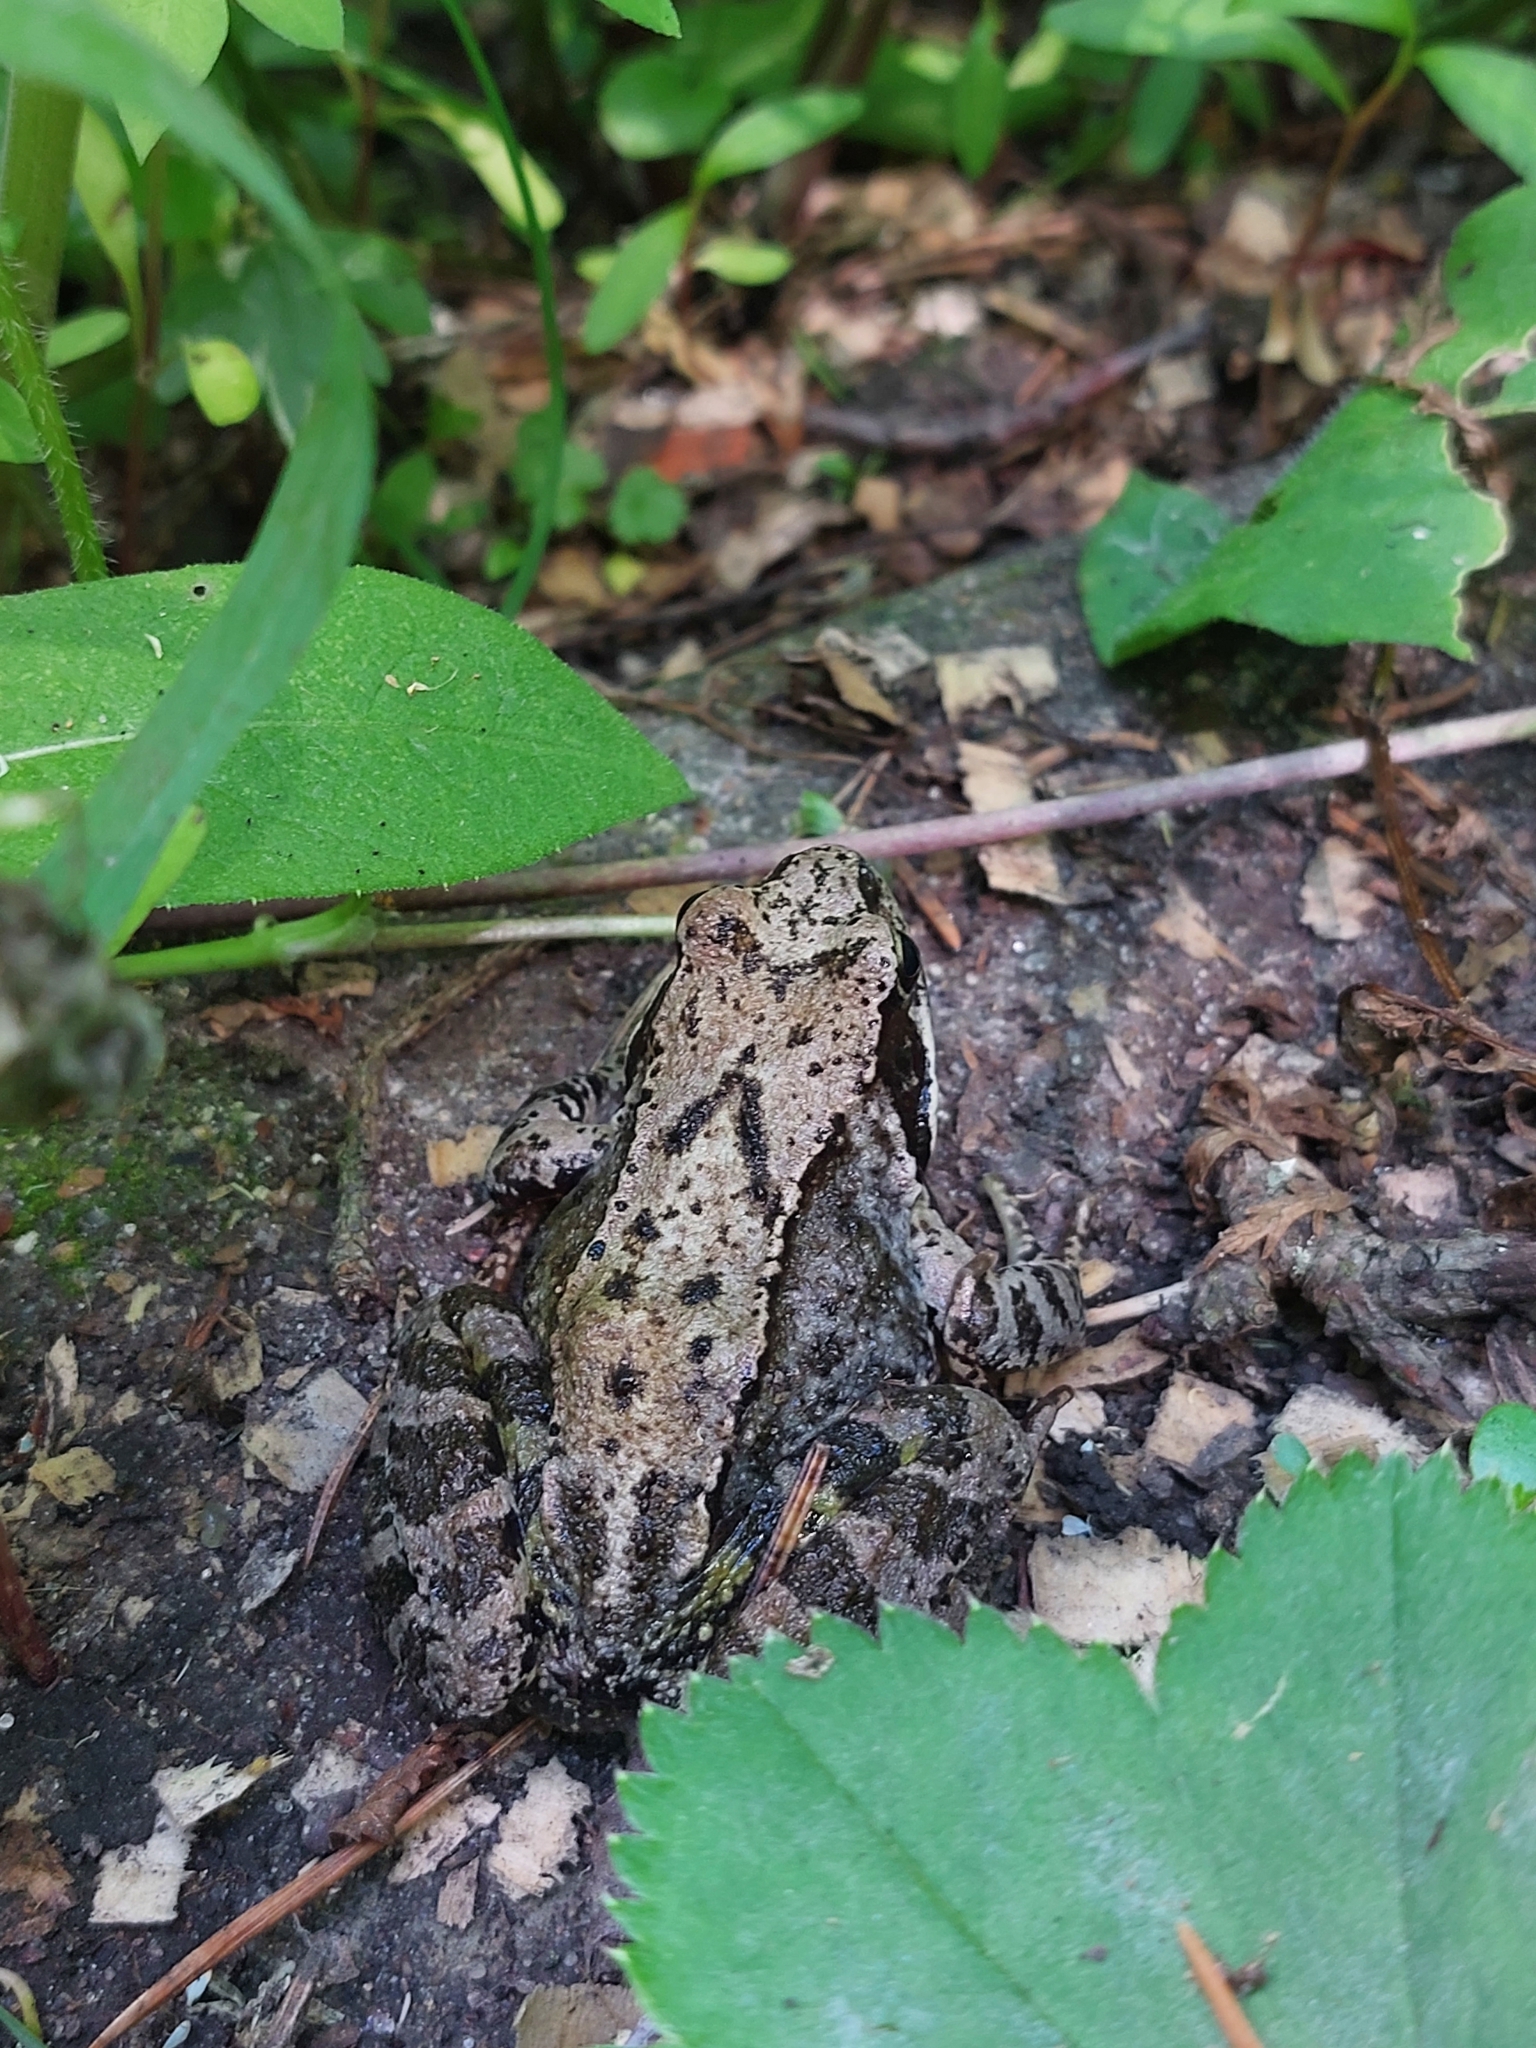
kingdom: Animalia
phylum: Chordata
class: Amphibia
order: Anura
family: Ranidae
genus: Rana
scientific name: Rana temporaria
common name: Common frog
